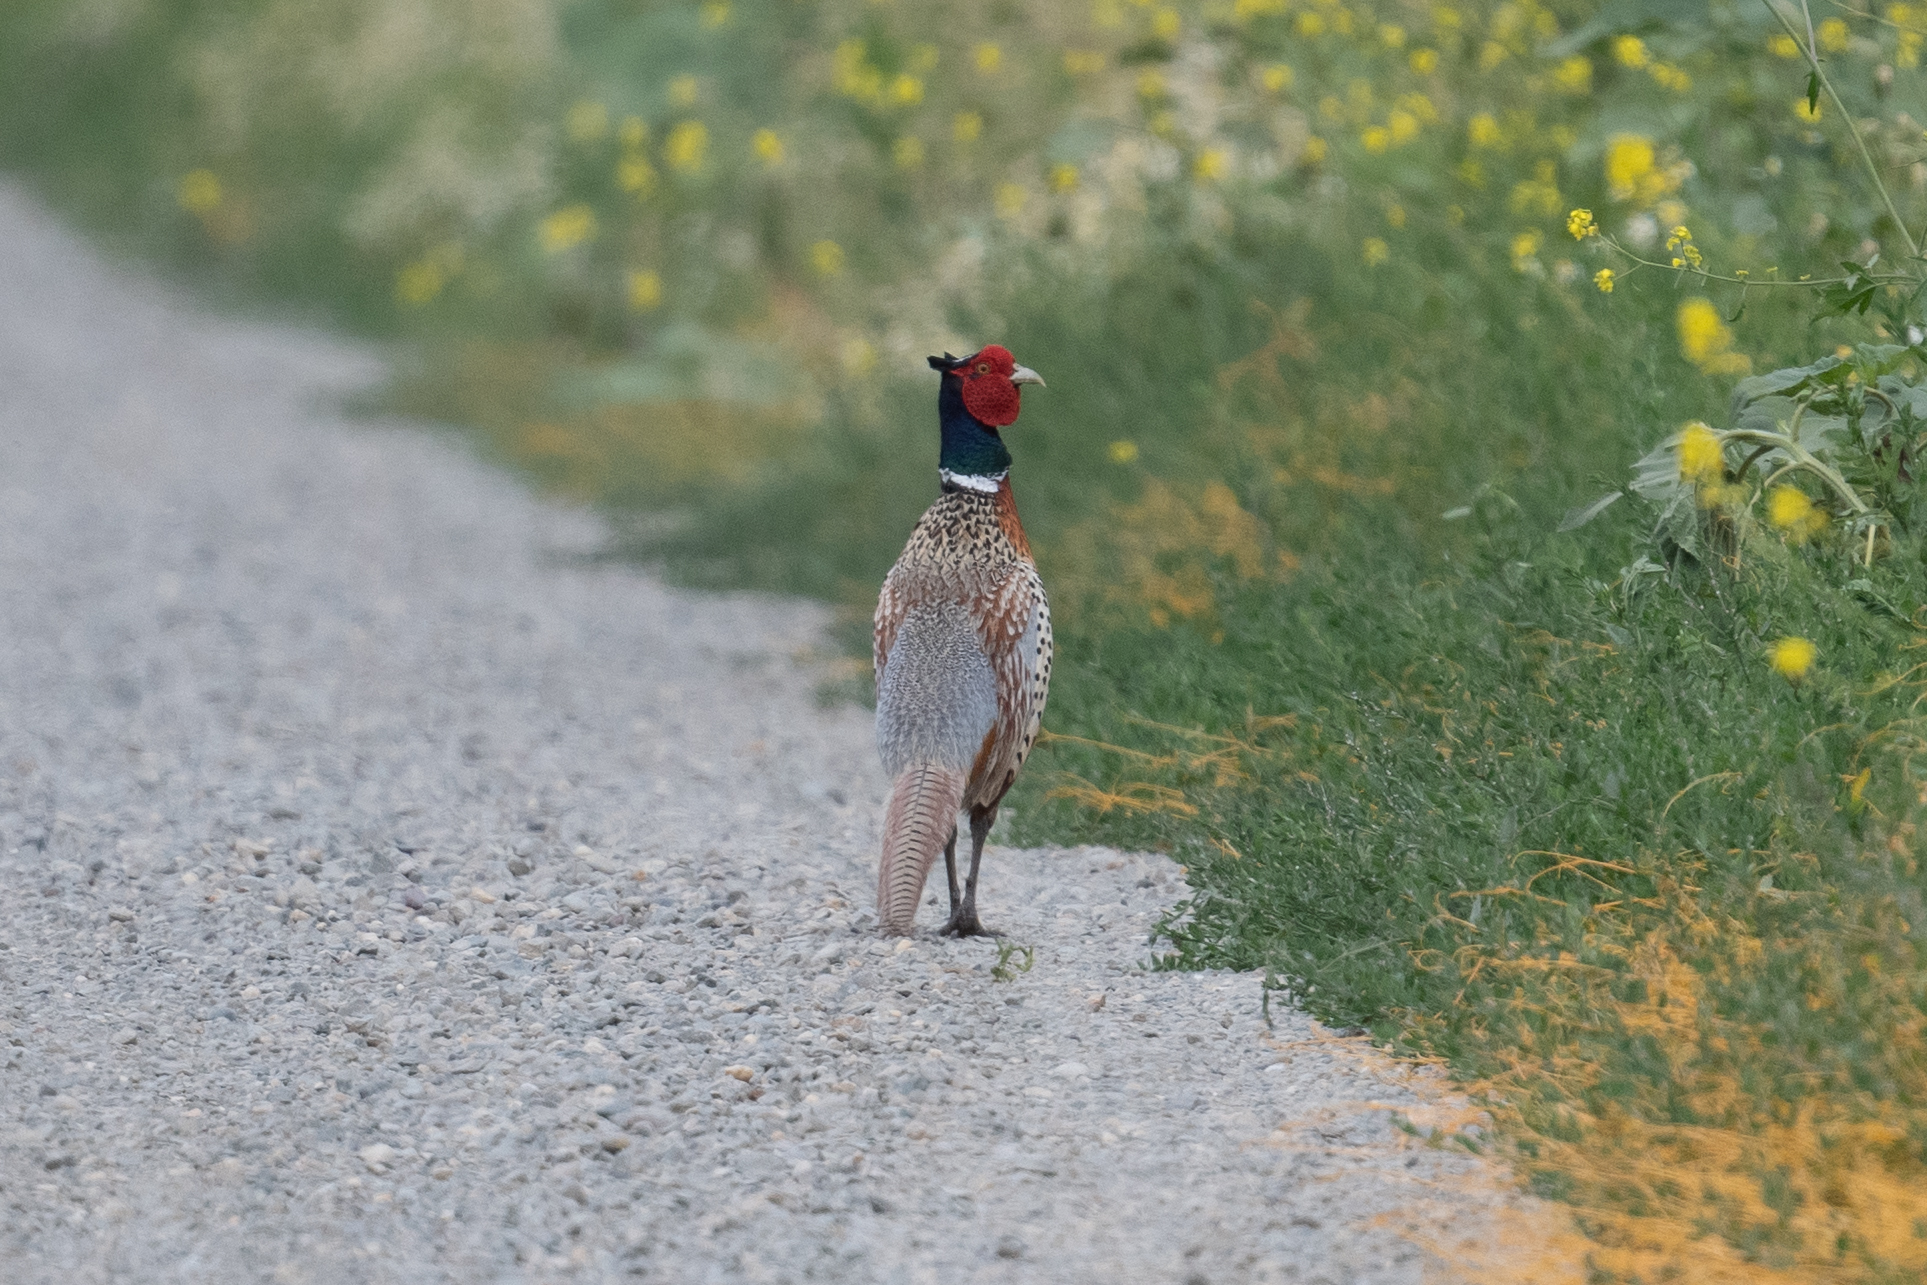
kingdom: Animalia
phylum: Chordata
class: Aves
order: Galliformes
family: Phasianidae
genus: Phasianus
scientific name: Phasianus colchicus
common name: Common pheasant
